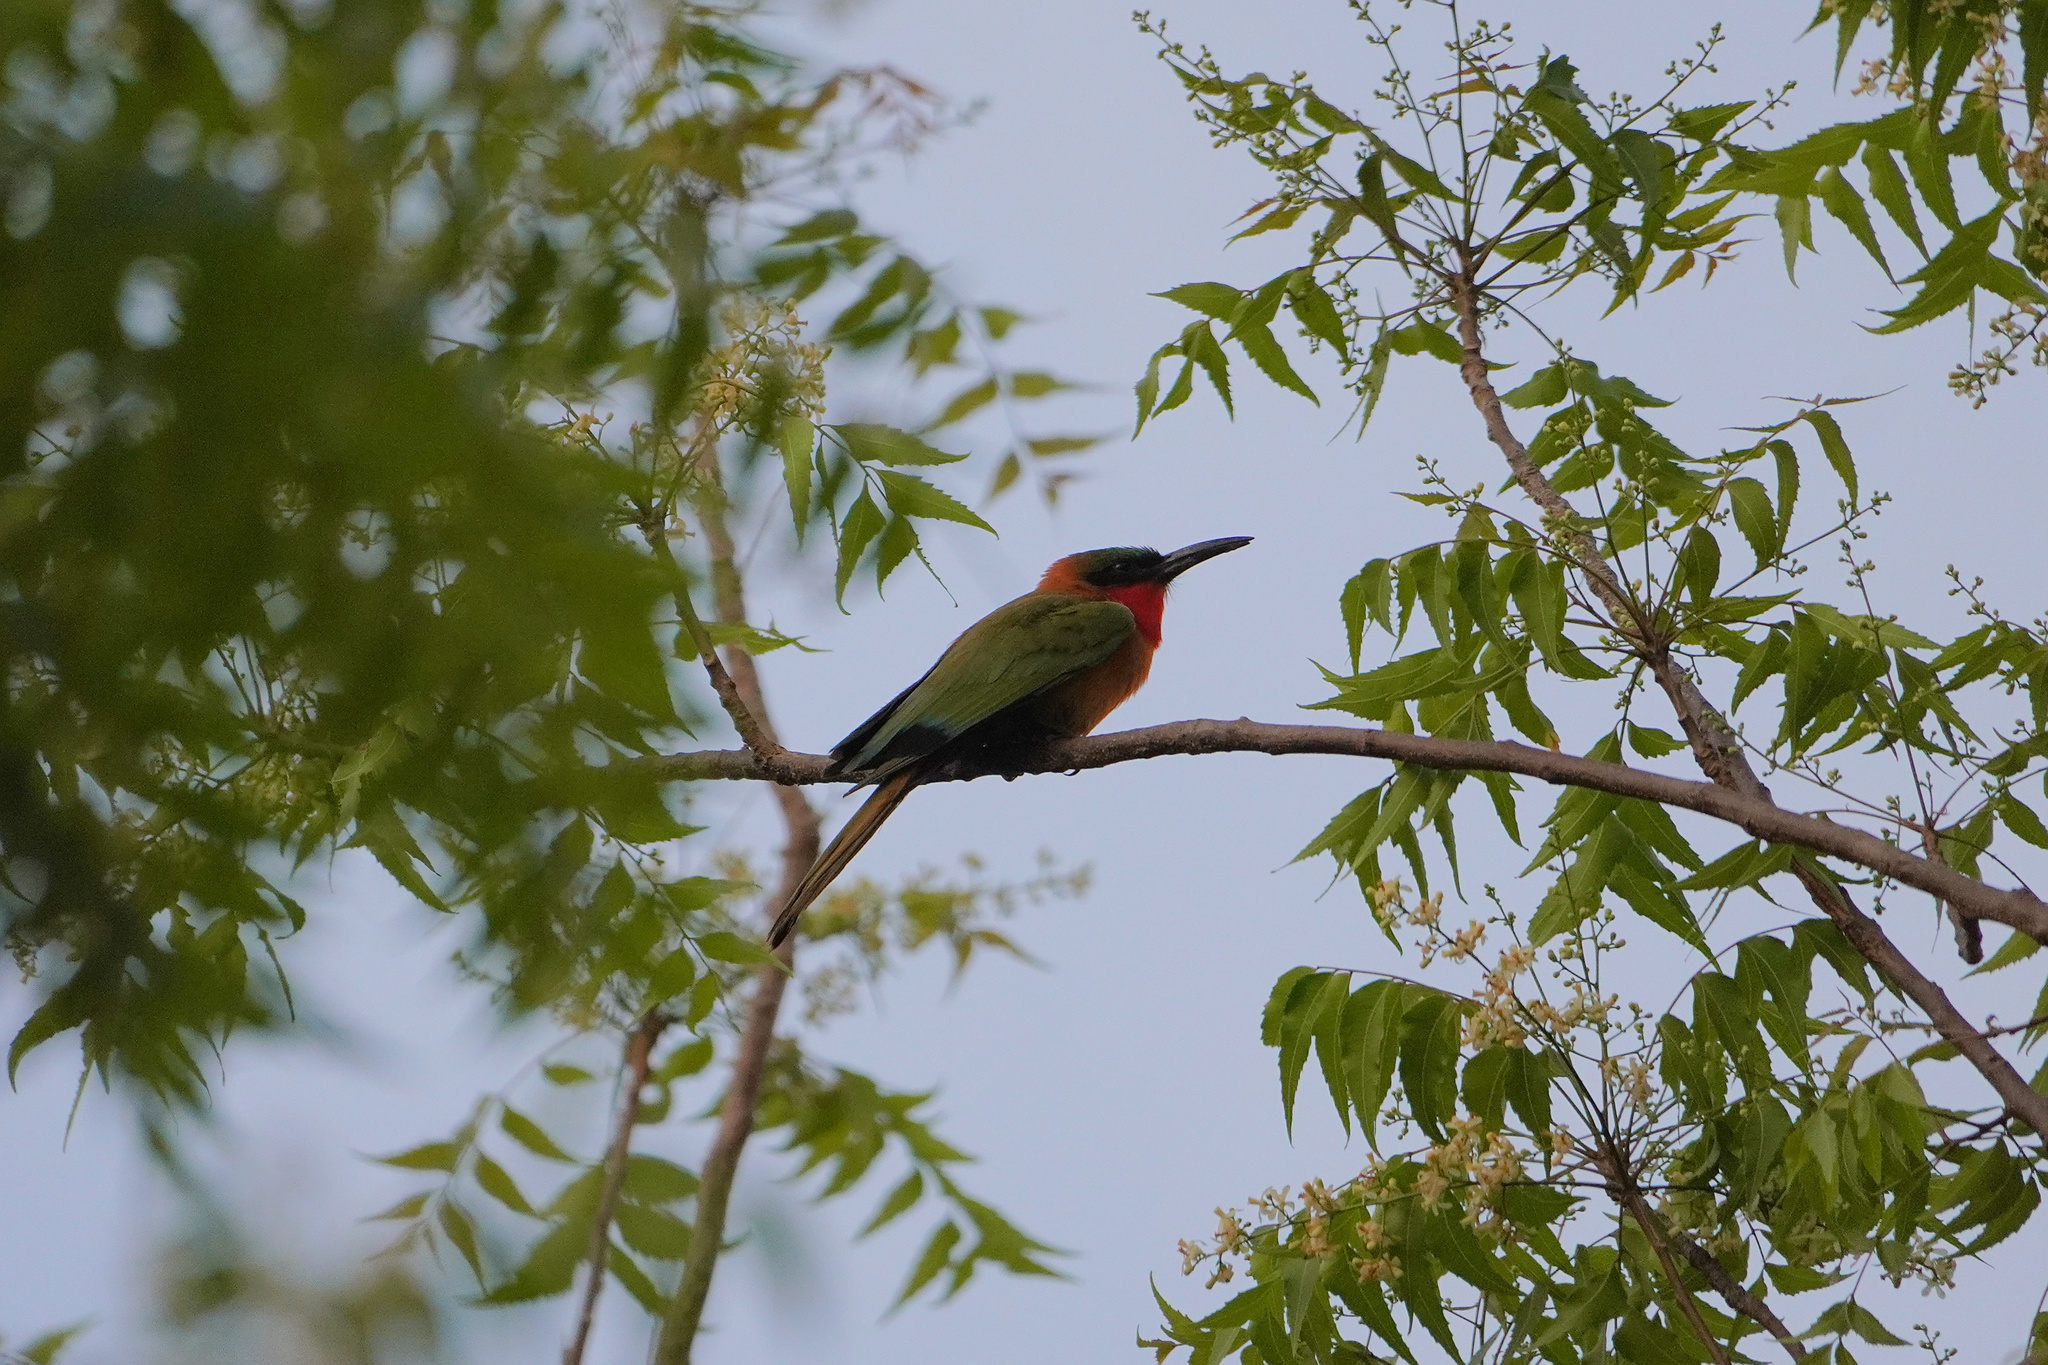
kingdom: Animalia
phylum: Chordata
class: Aves
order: Coraciiformes
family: Meropidae
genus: Merops
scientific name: Merops bulocki
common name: Red-throated bee-eater
